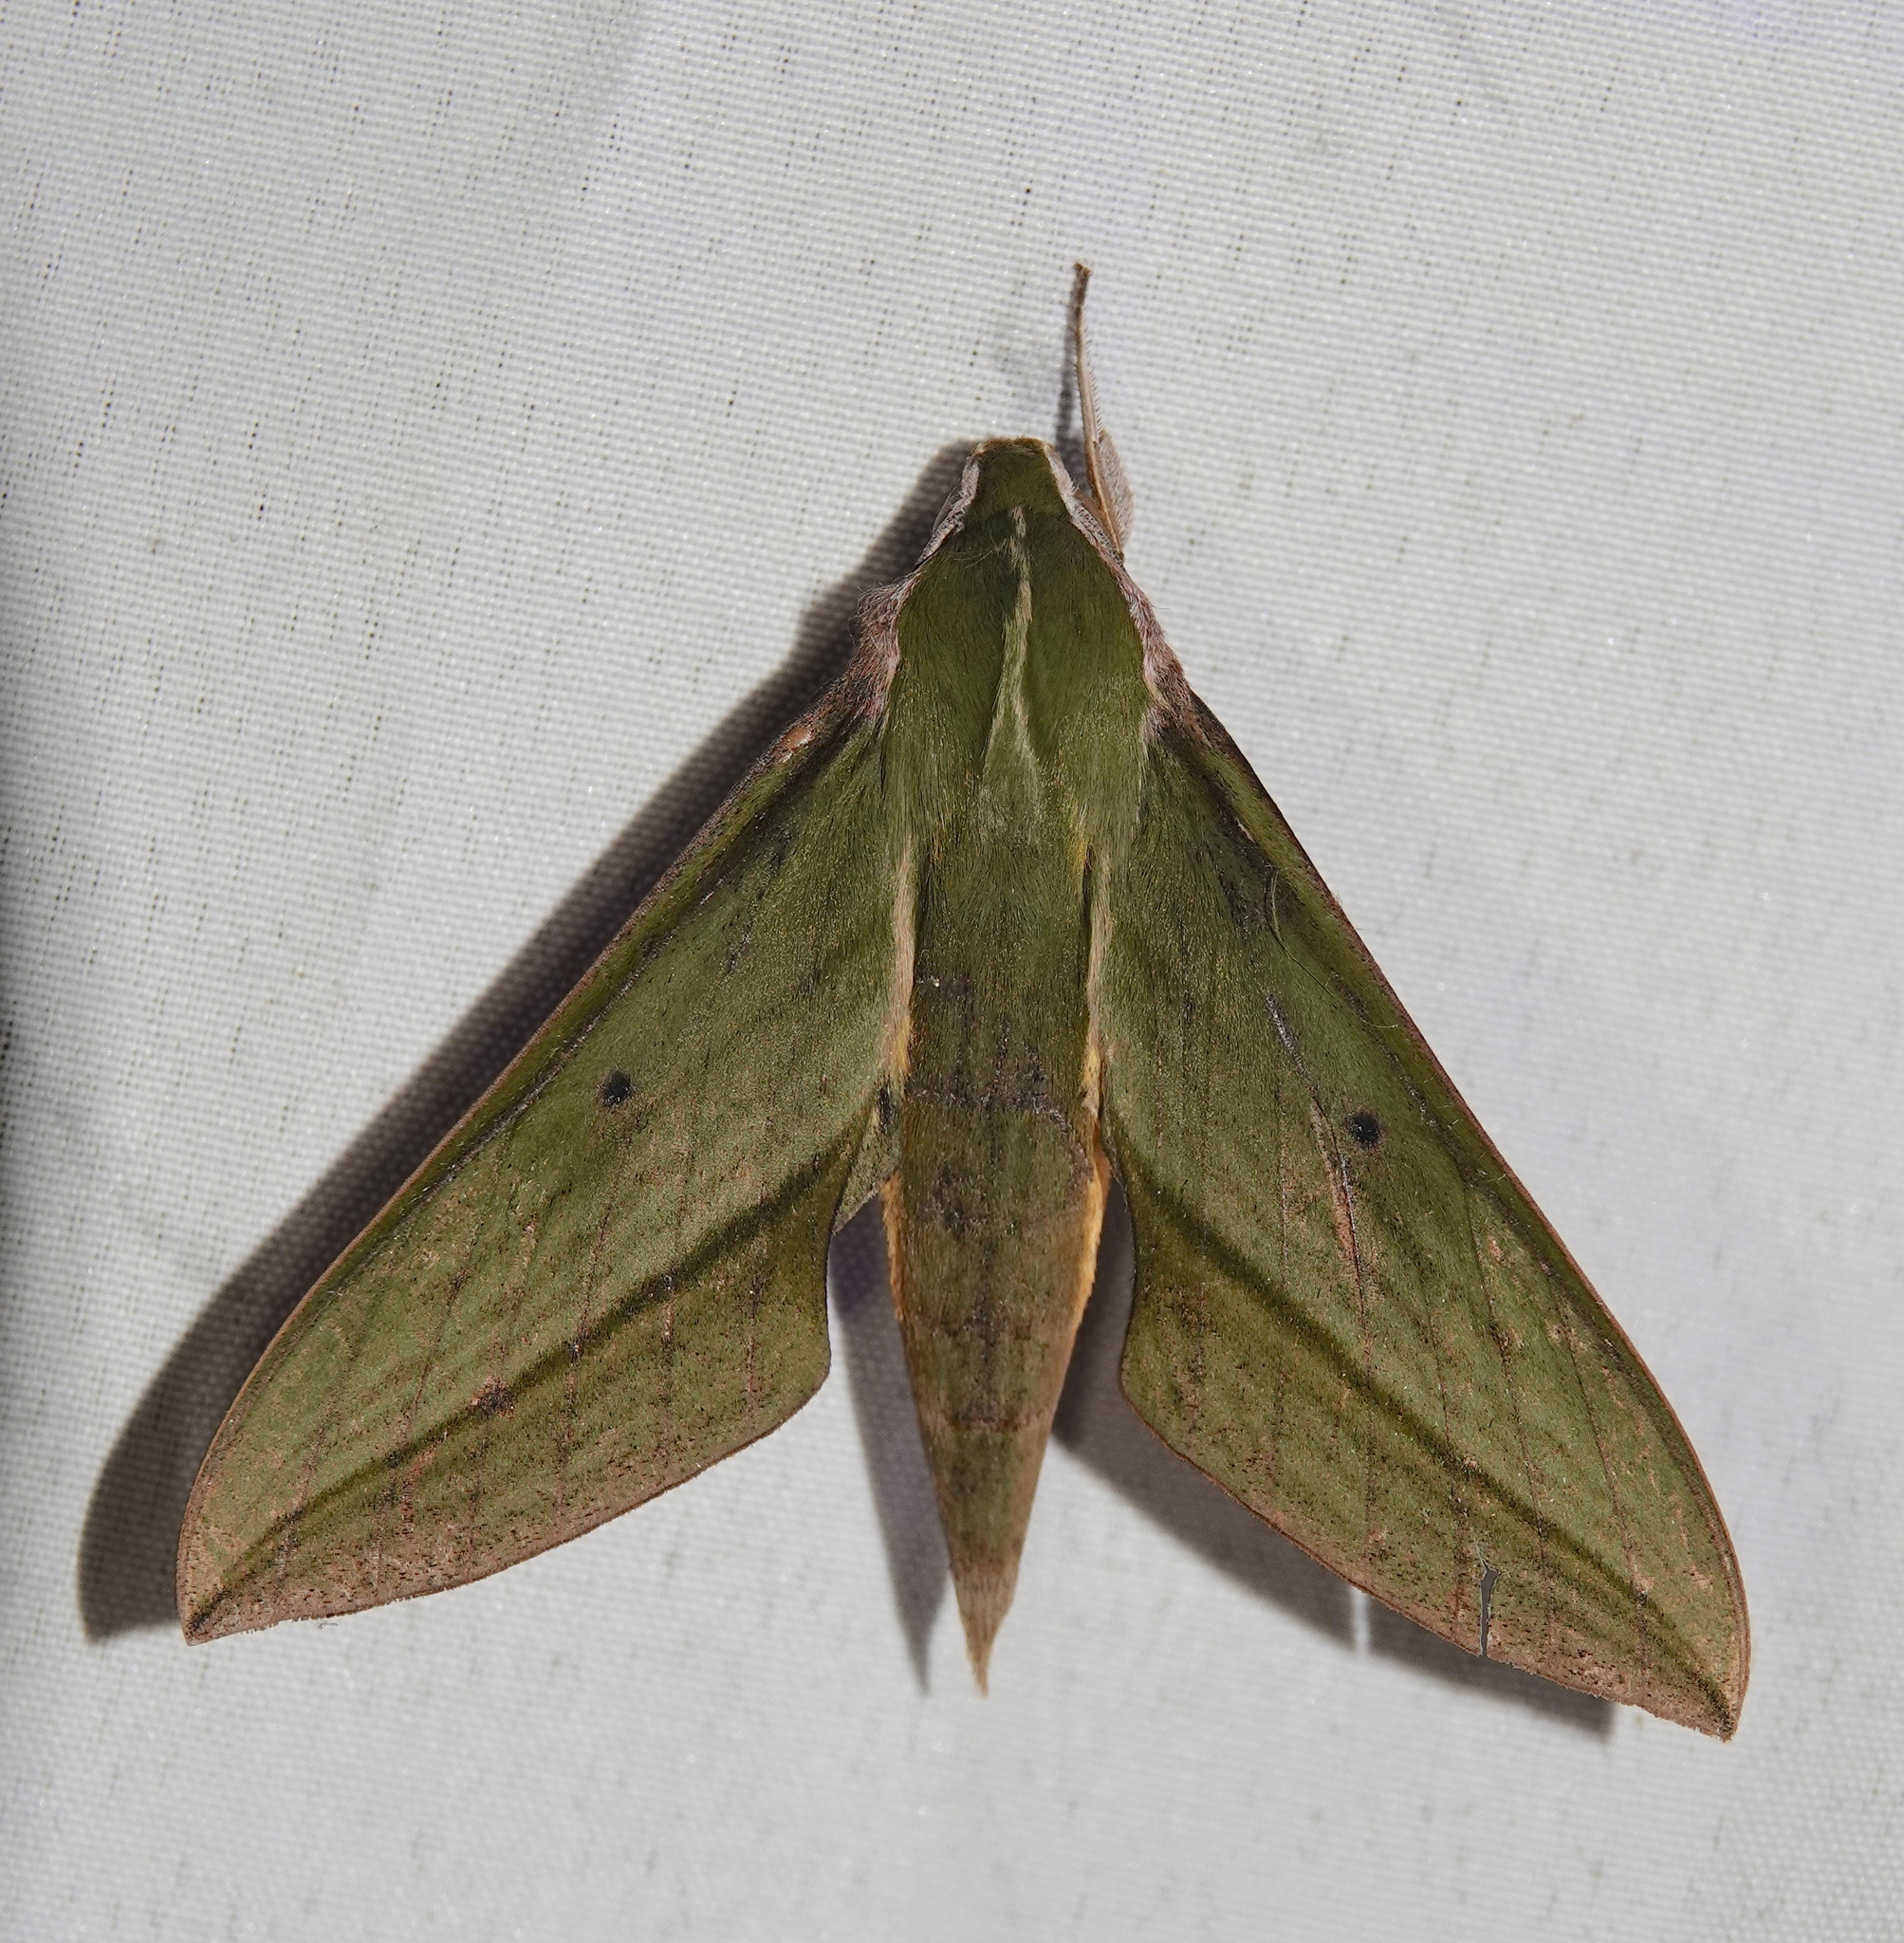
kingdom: Animalia
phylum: Arthropoda
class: Insecta
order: Lepidoptera
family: Sphingidae
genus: Xylophanes
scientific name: Xylophanes crotonis
